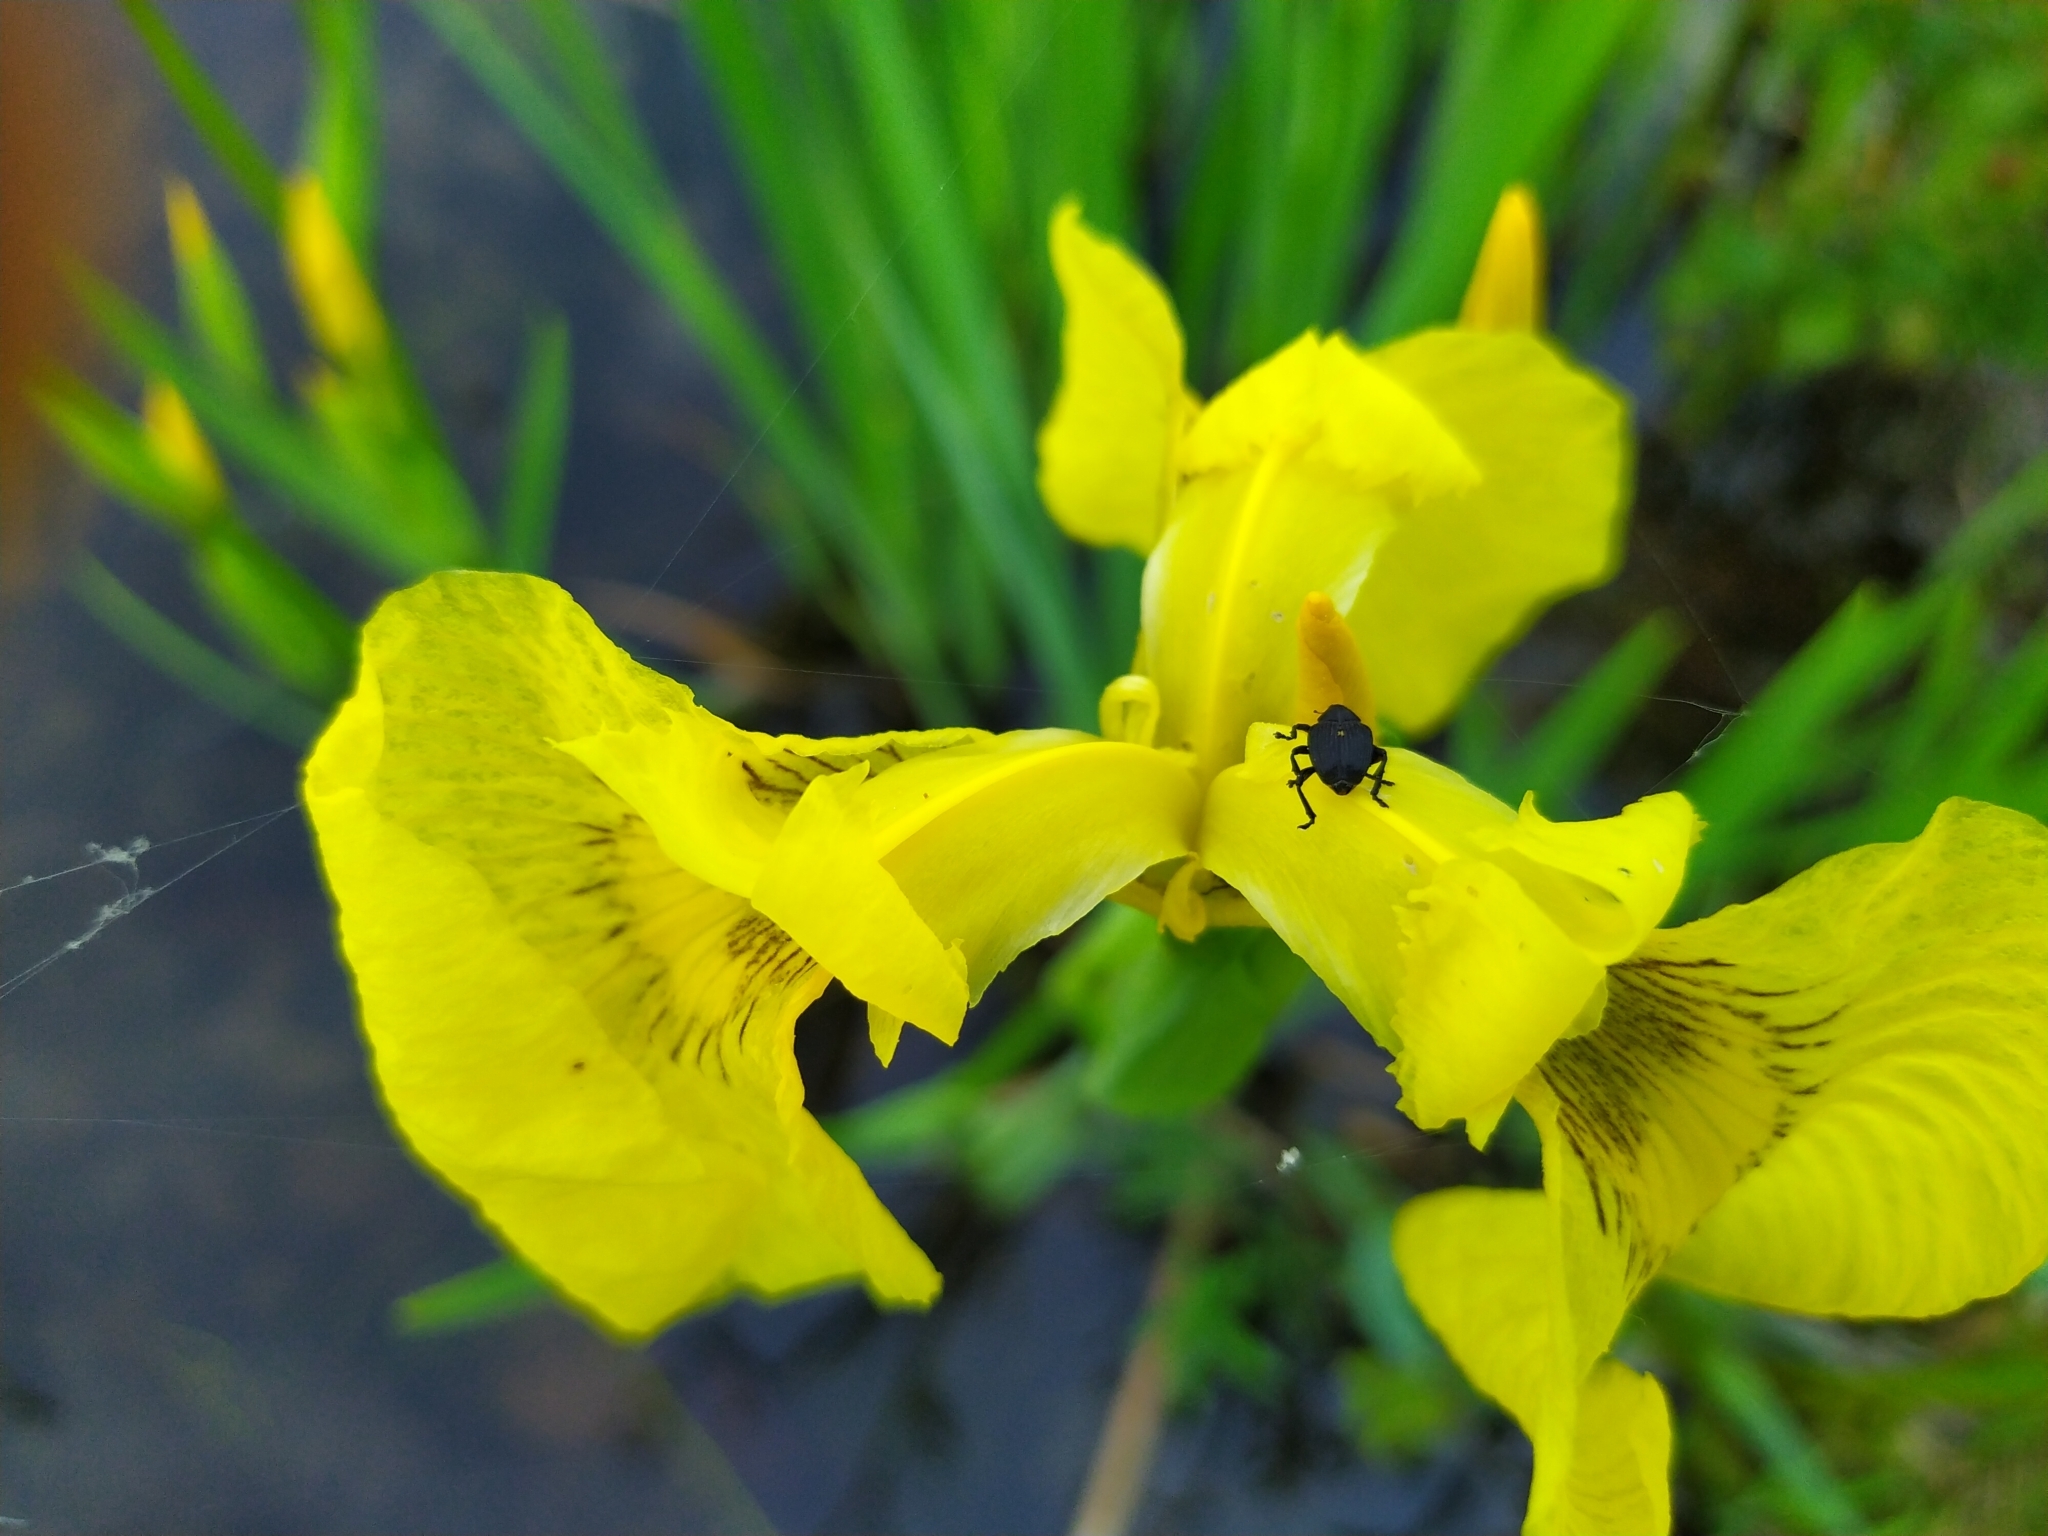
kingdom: Animalia
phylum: Arthropoda
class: Insecta
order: Coleoptera
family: Curculionidae
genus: Mononychus
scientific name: Mononychus punctumalbum
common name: Iris weevil
